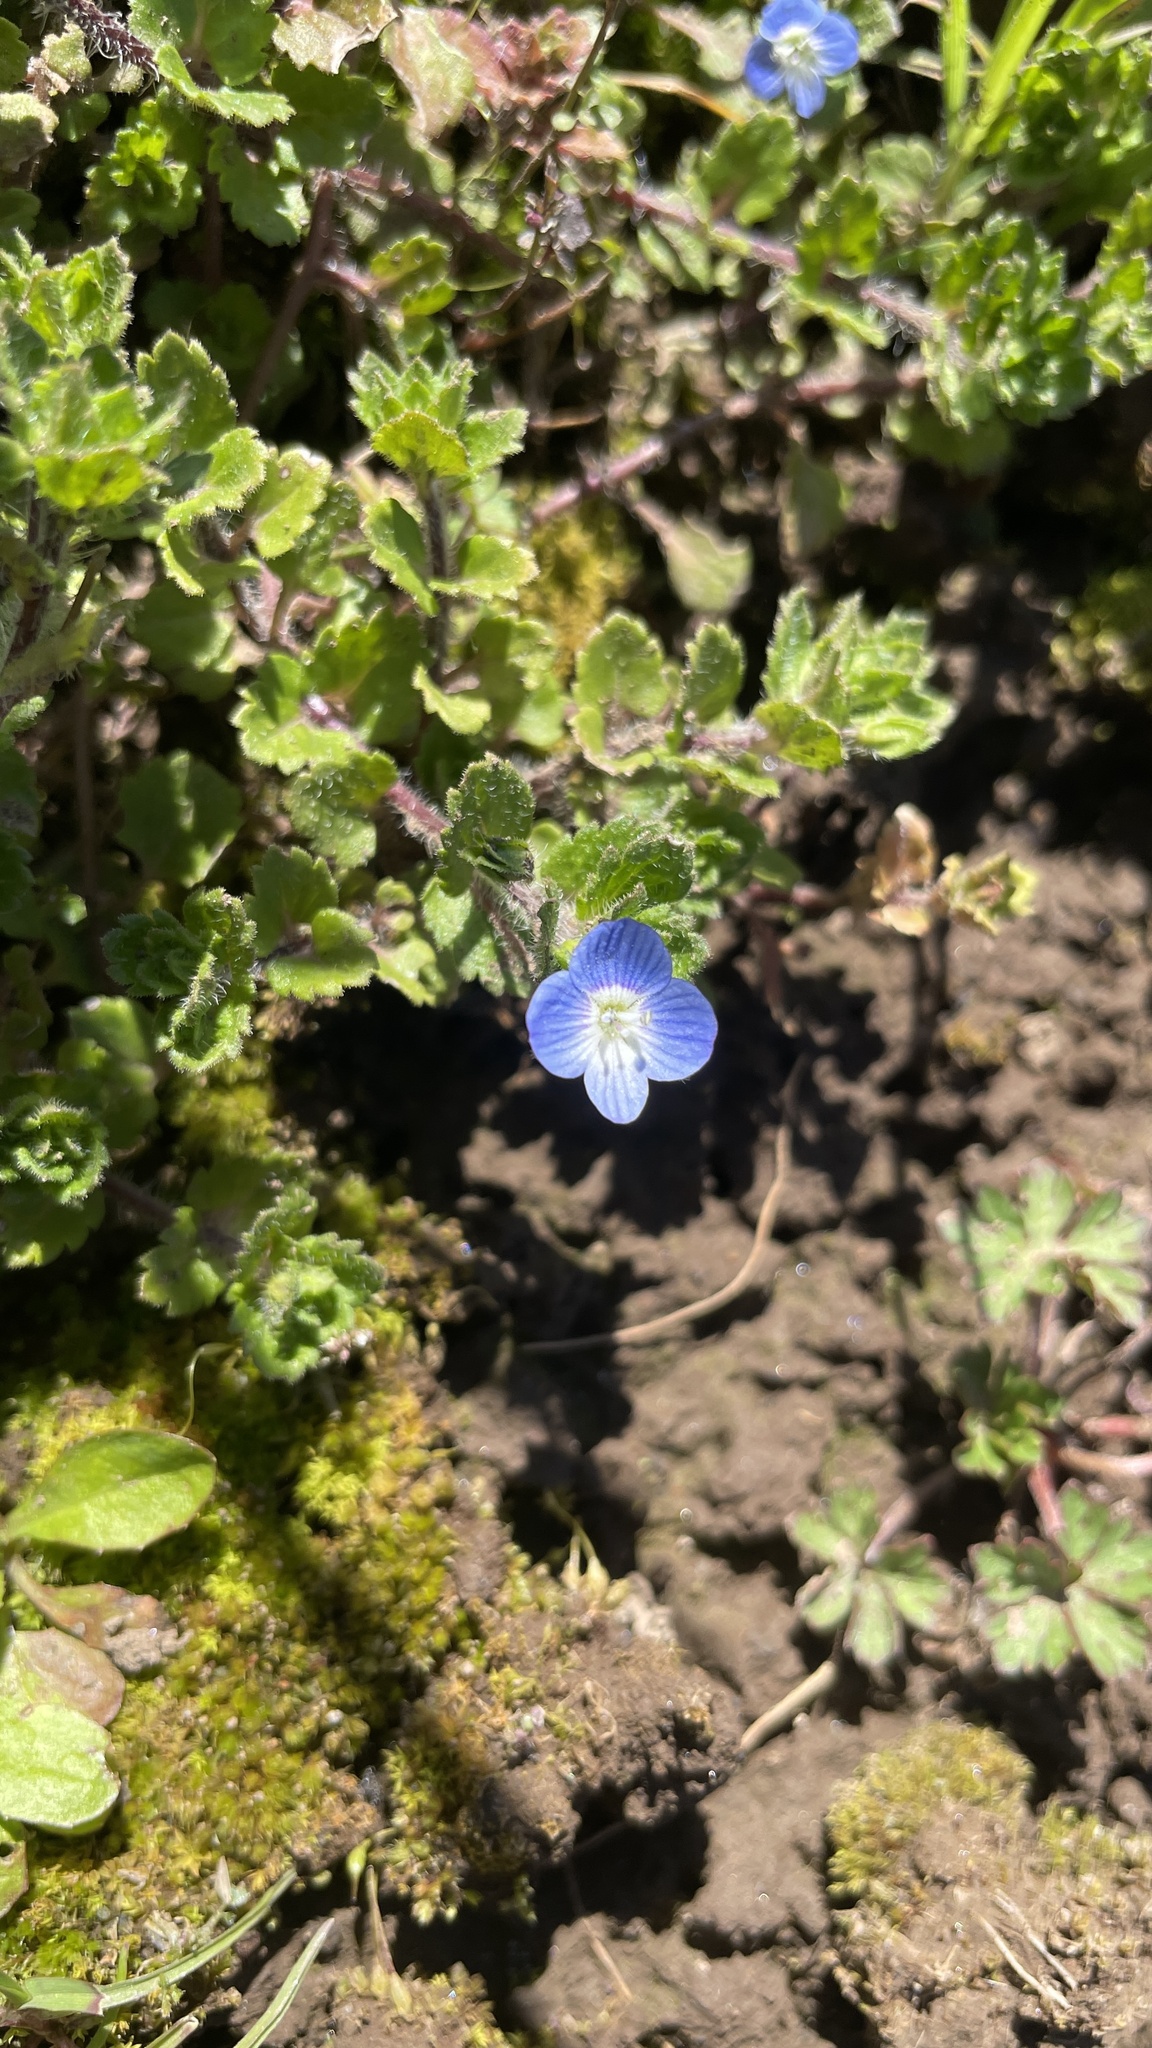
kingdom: Plantae
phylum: Tracheophyta
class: Magnoliopsida
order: Lamiales
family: Plantaginaceae
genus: Veronica
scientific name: Veronica persica
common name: Common field-speedwell
